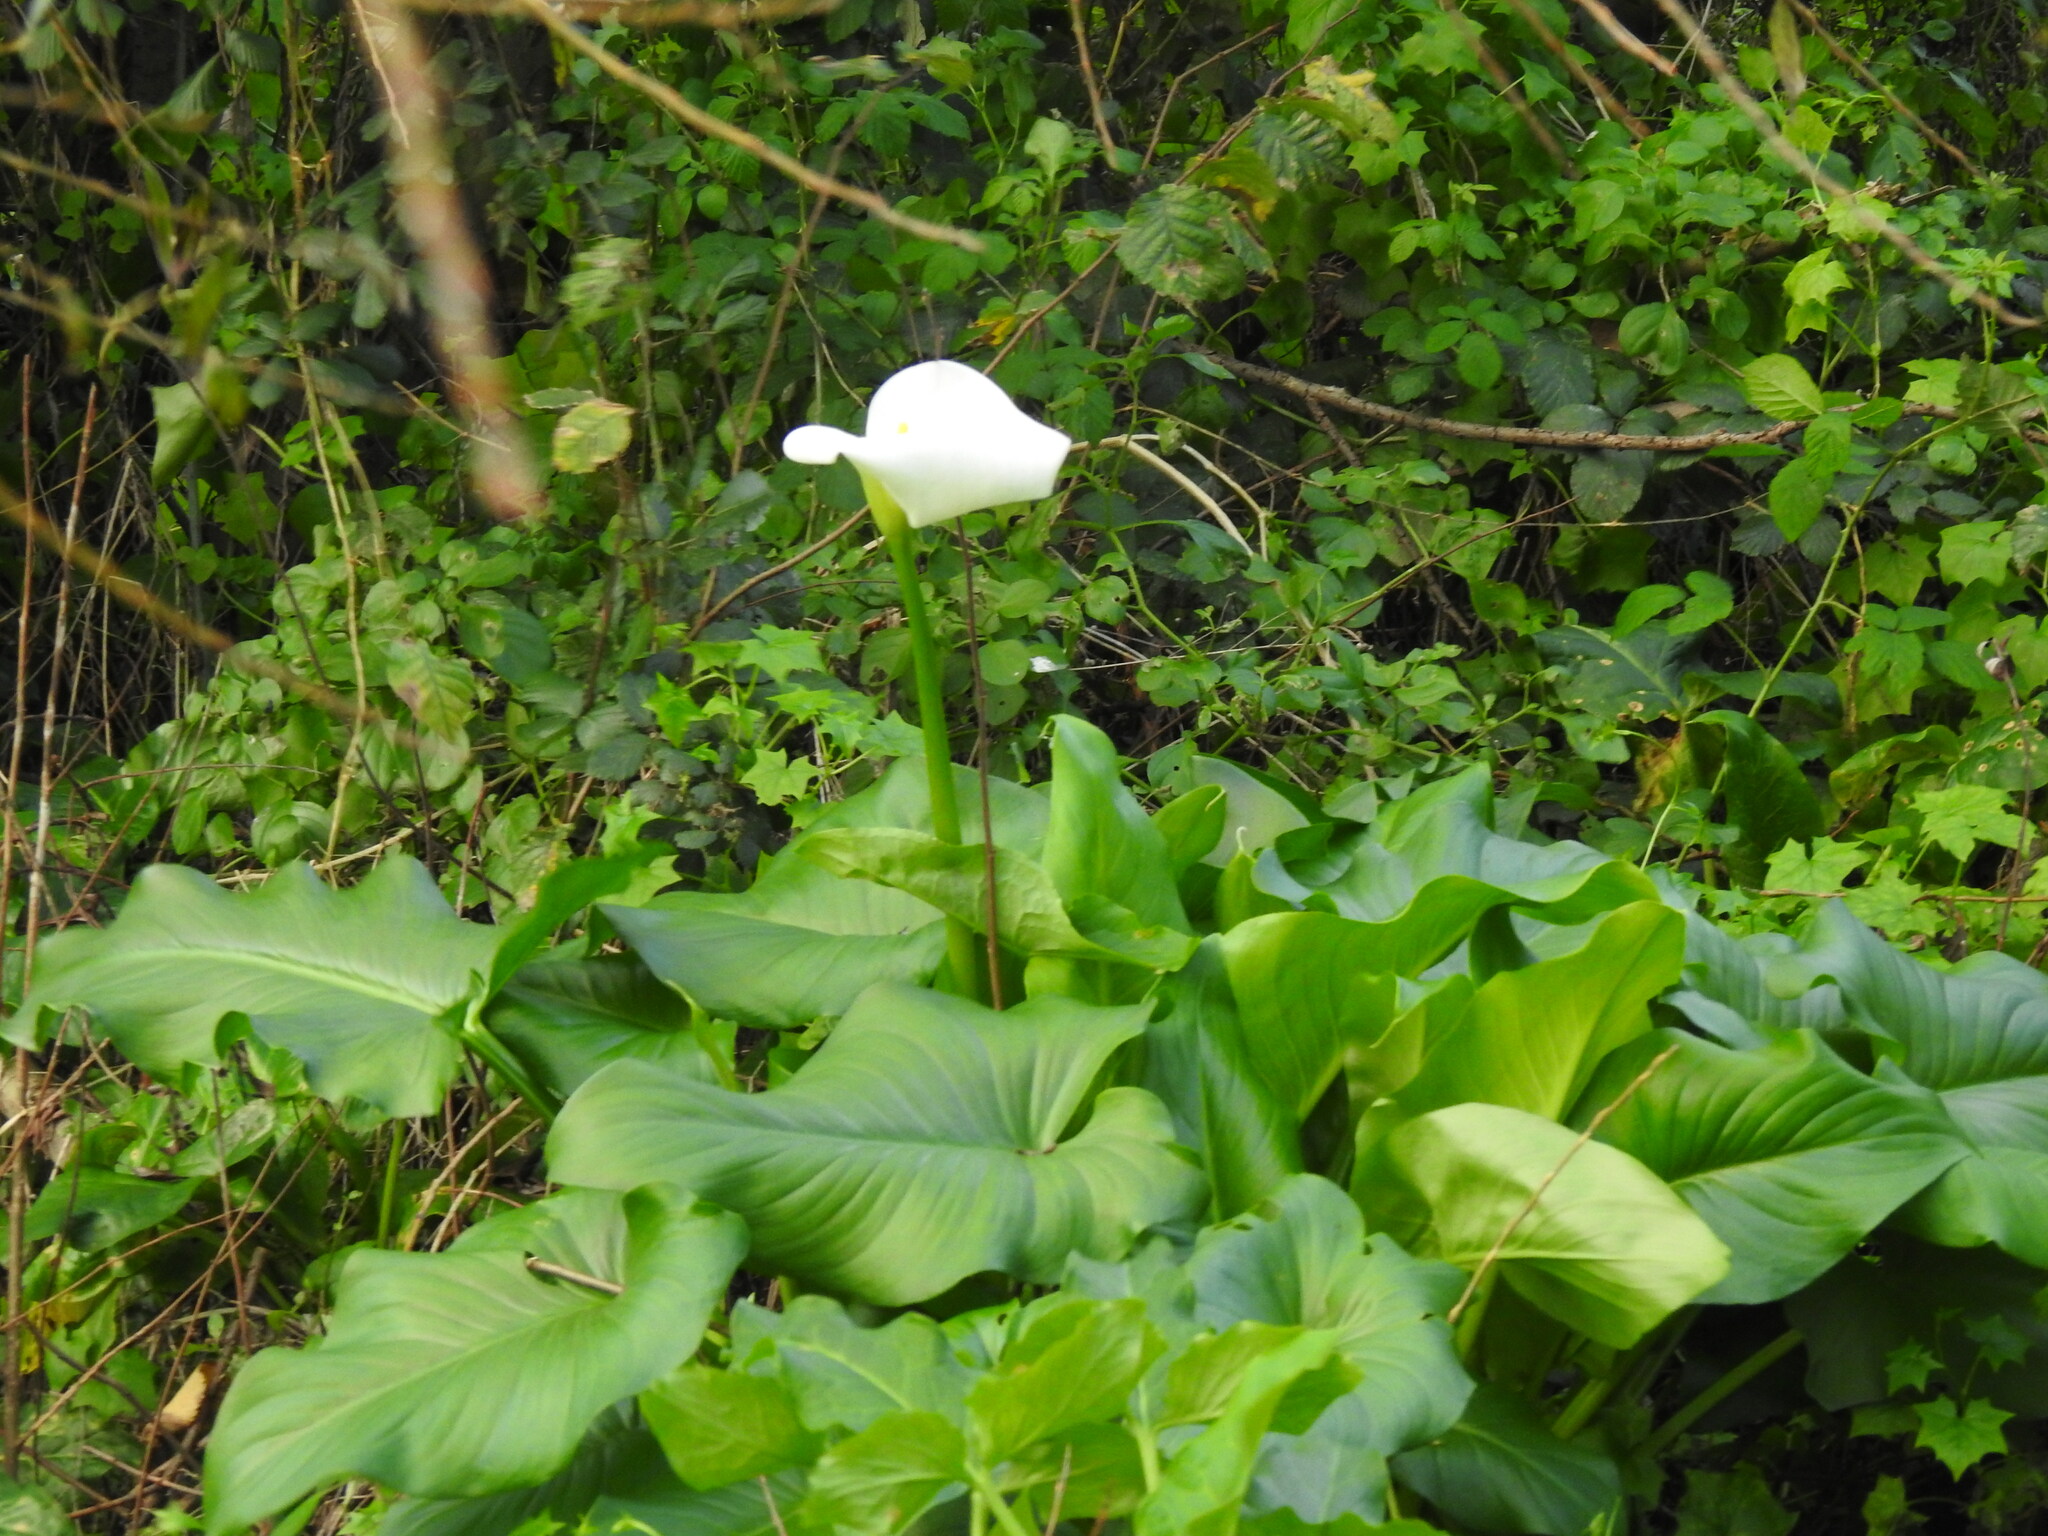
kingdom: Plantae
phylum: Tracheophyta
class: Liliopsida
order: Alismatales
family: Araceae
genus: Zantedeschia
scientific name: Zantedeschia aethiopica
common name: Altar-lily
